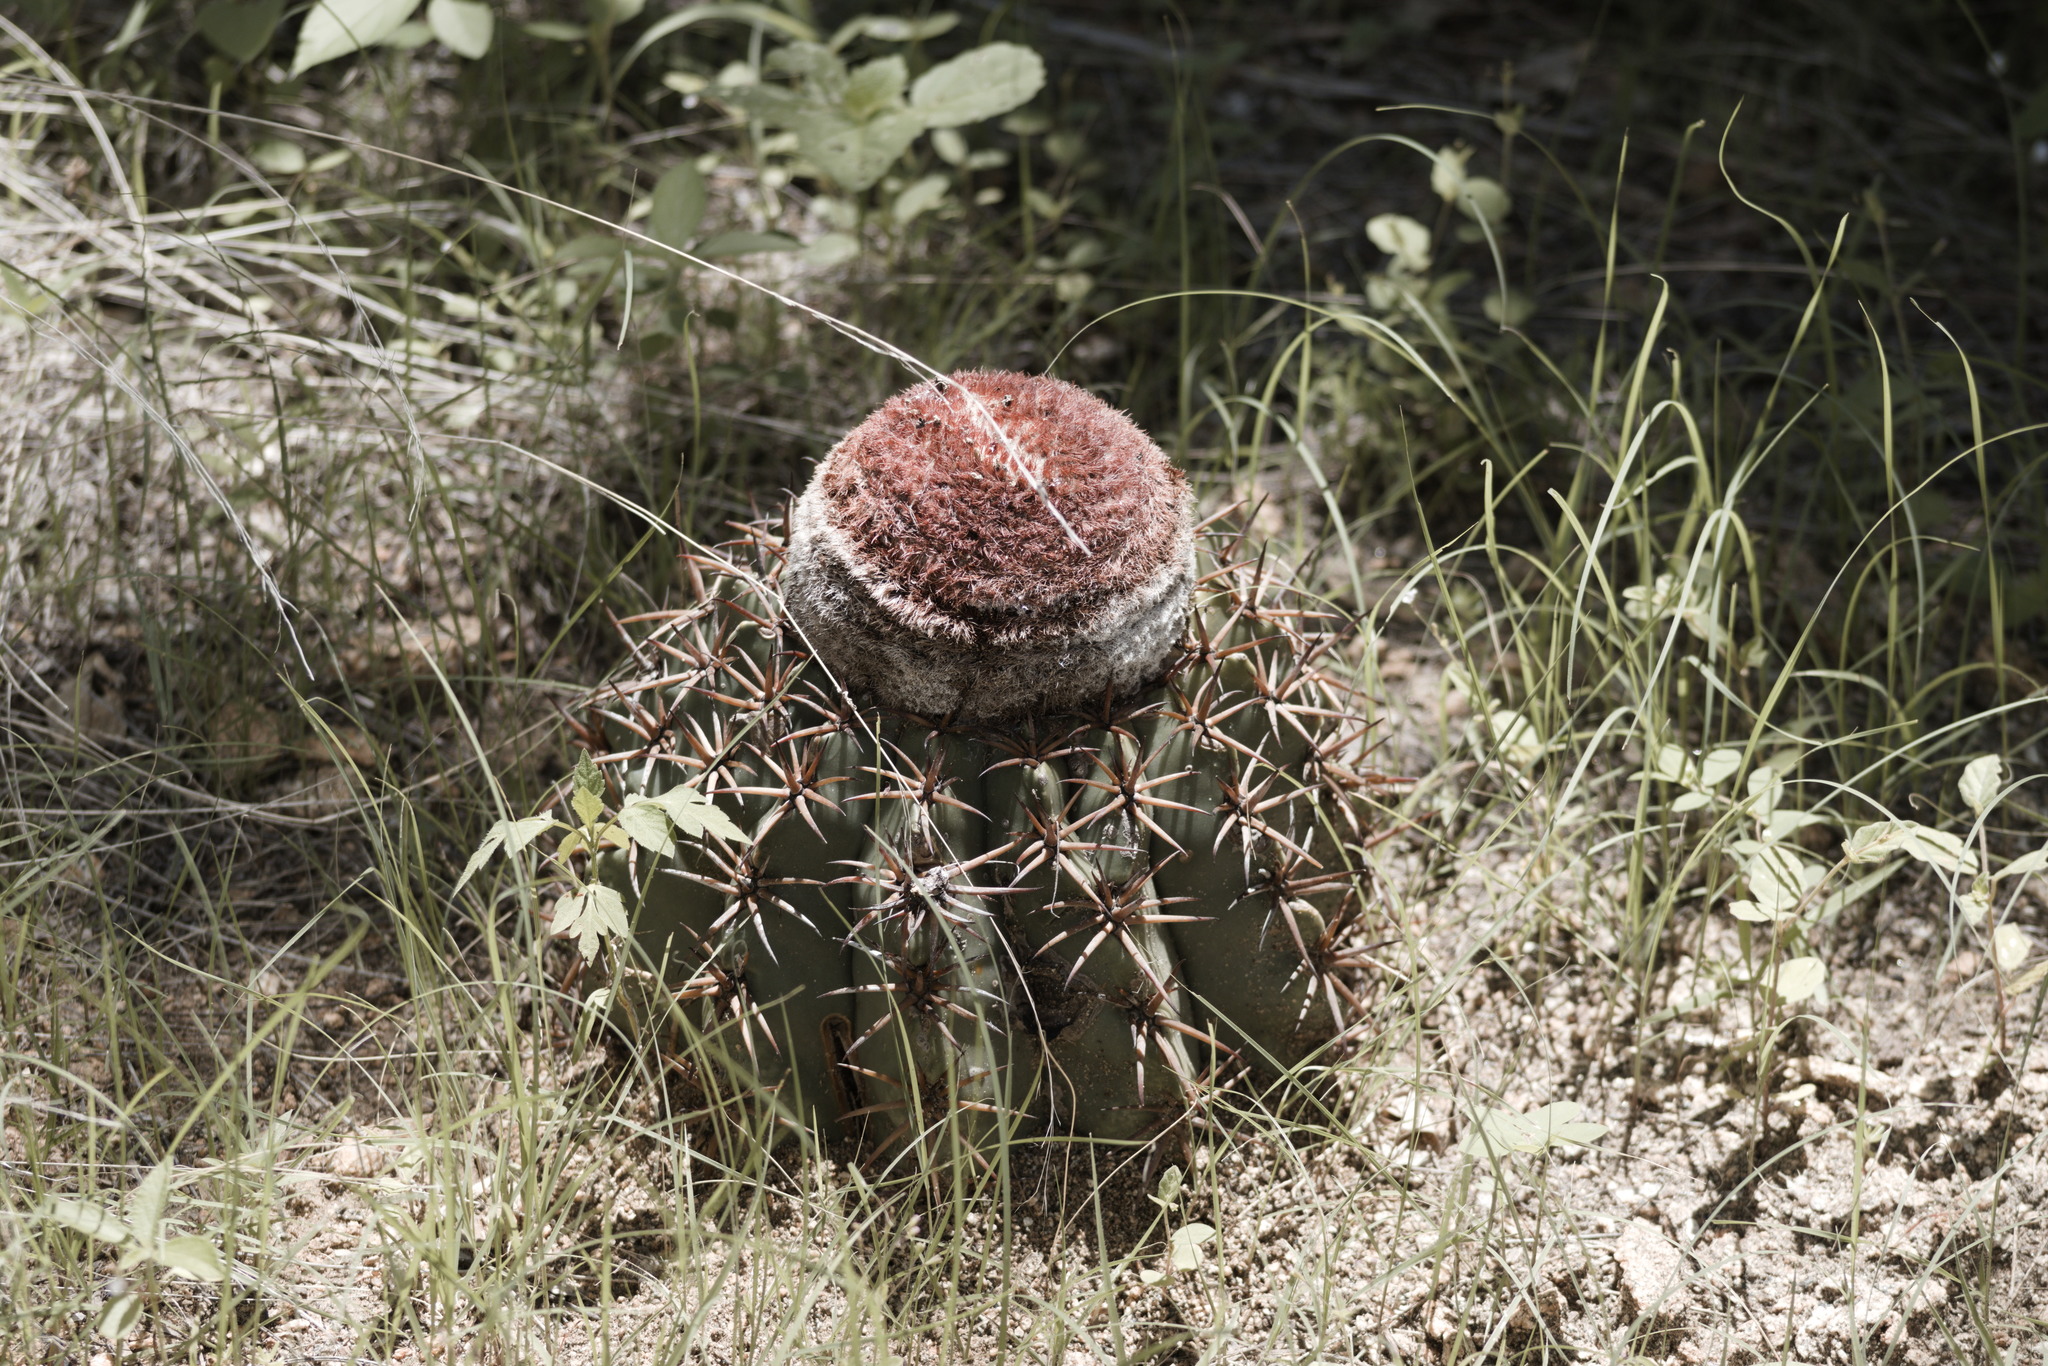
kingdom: Plantae
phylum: Tracheophyta
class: Magnoliopsida
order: Caryophyllales
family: Cactaceae
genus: Melocactus
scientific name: Melocactus zehntneri
